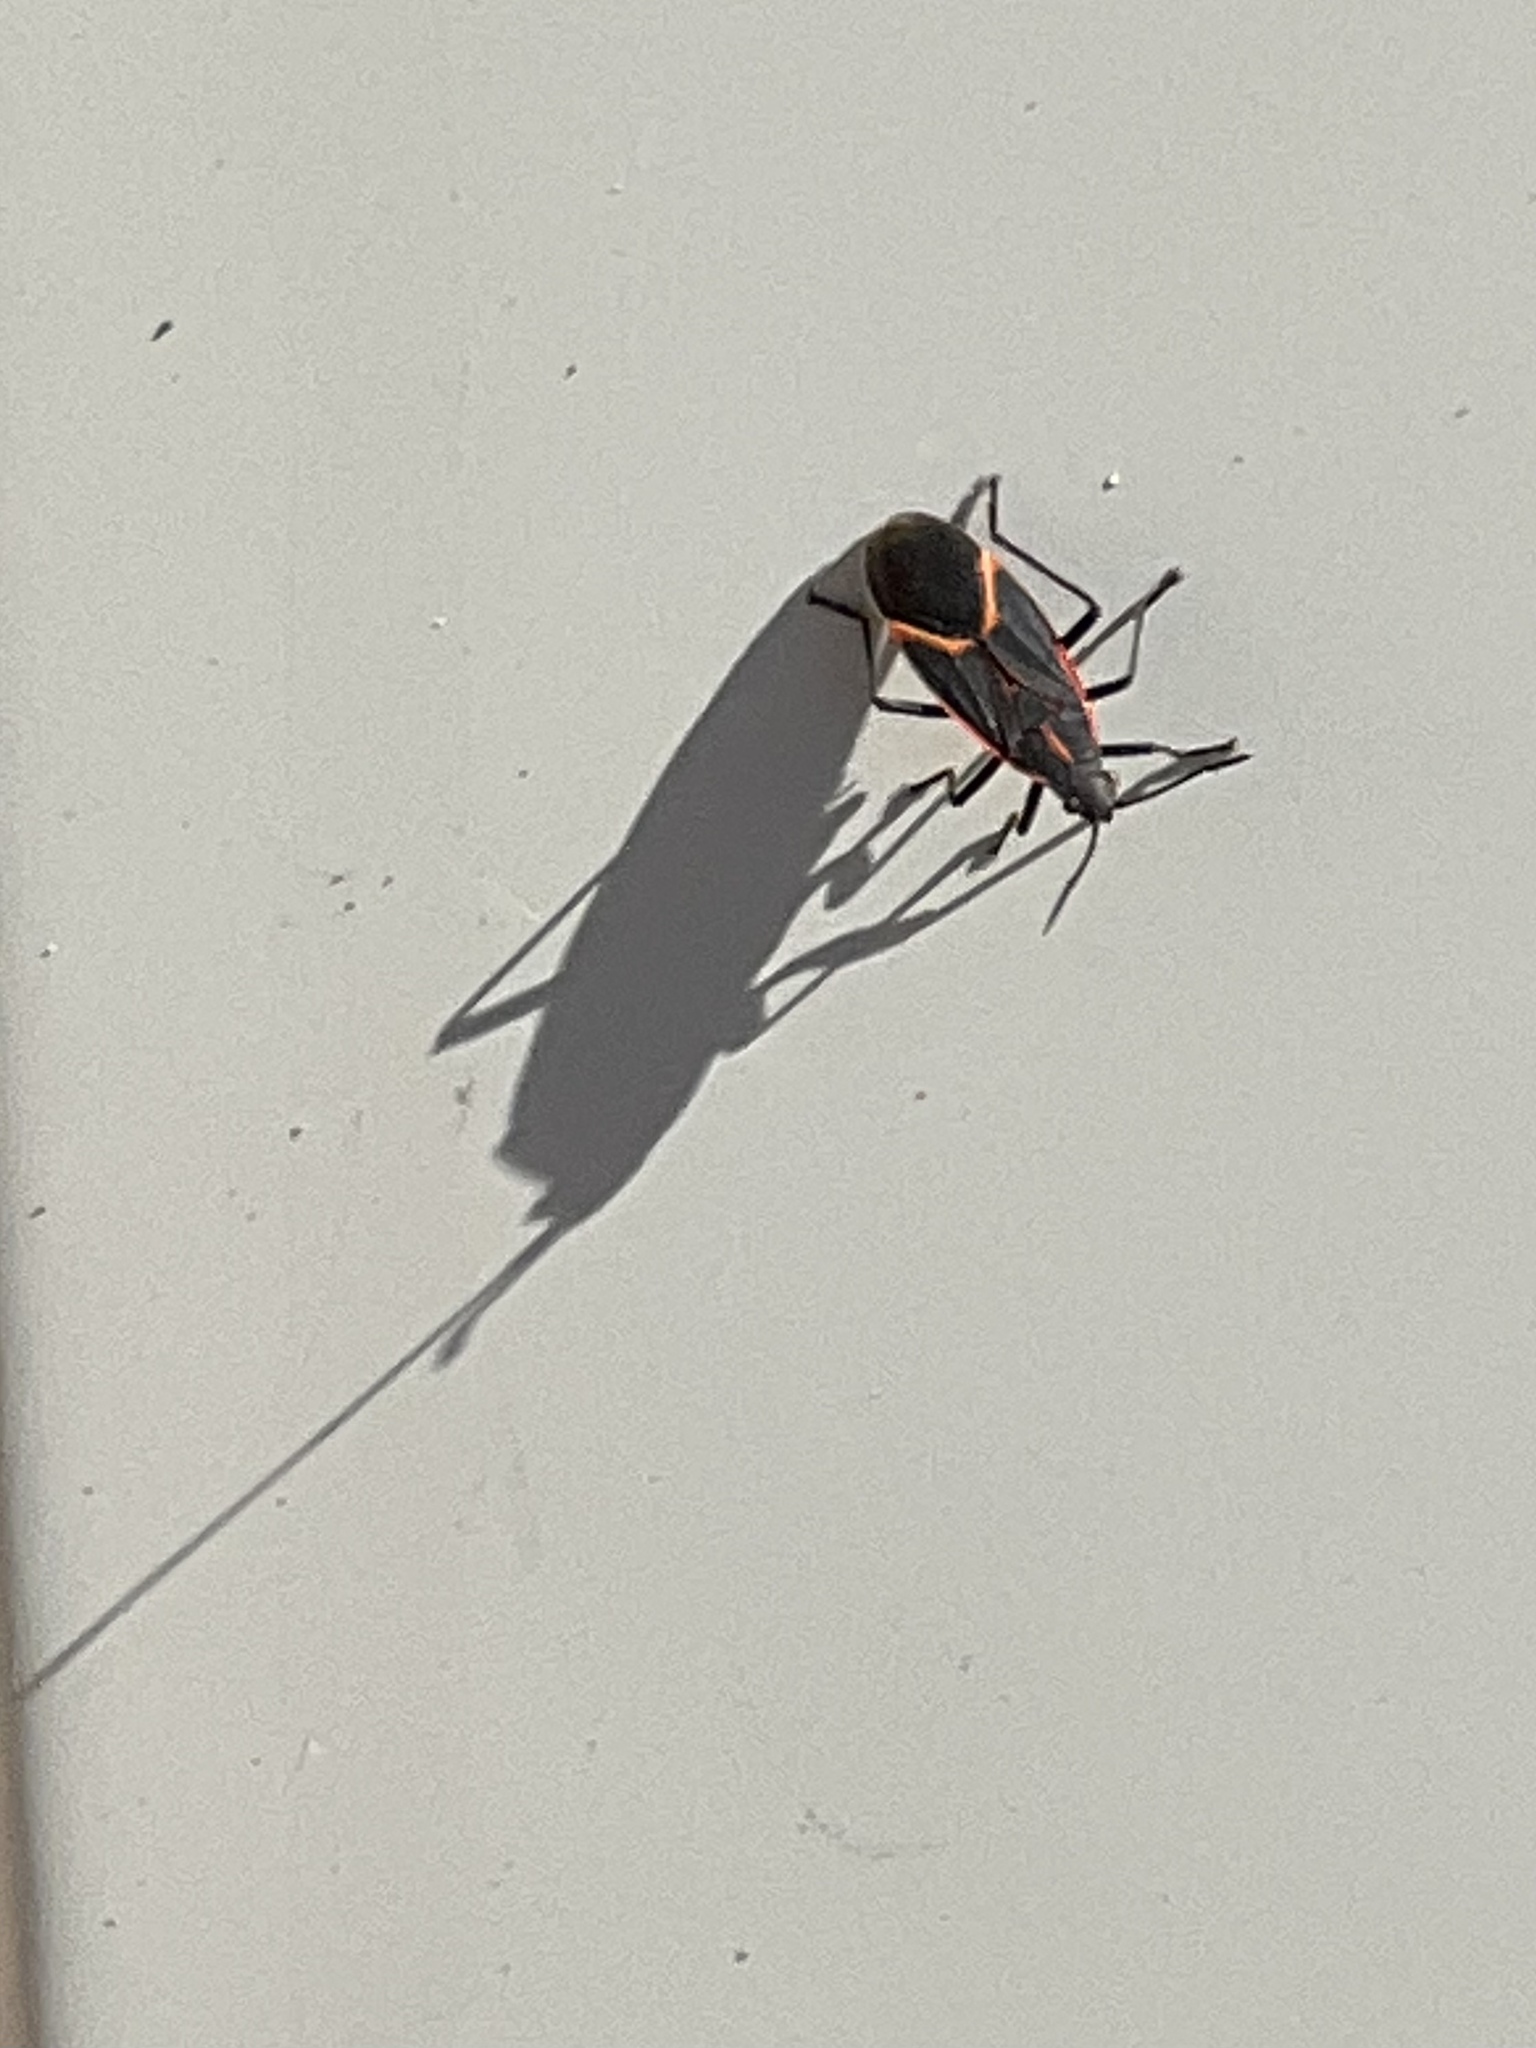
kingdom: Animalia
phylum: Arthropoda
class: Insecta
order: Hemiptera
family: Rhopalidae
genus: Boisea
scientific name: Boisea trivittata
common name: Boxelder bug
